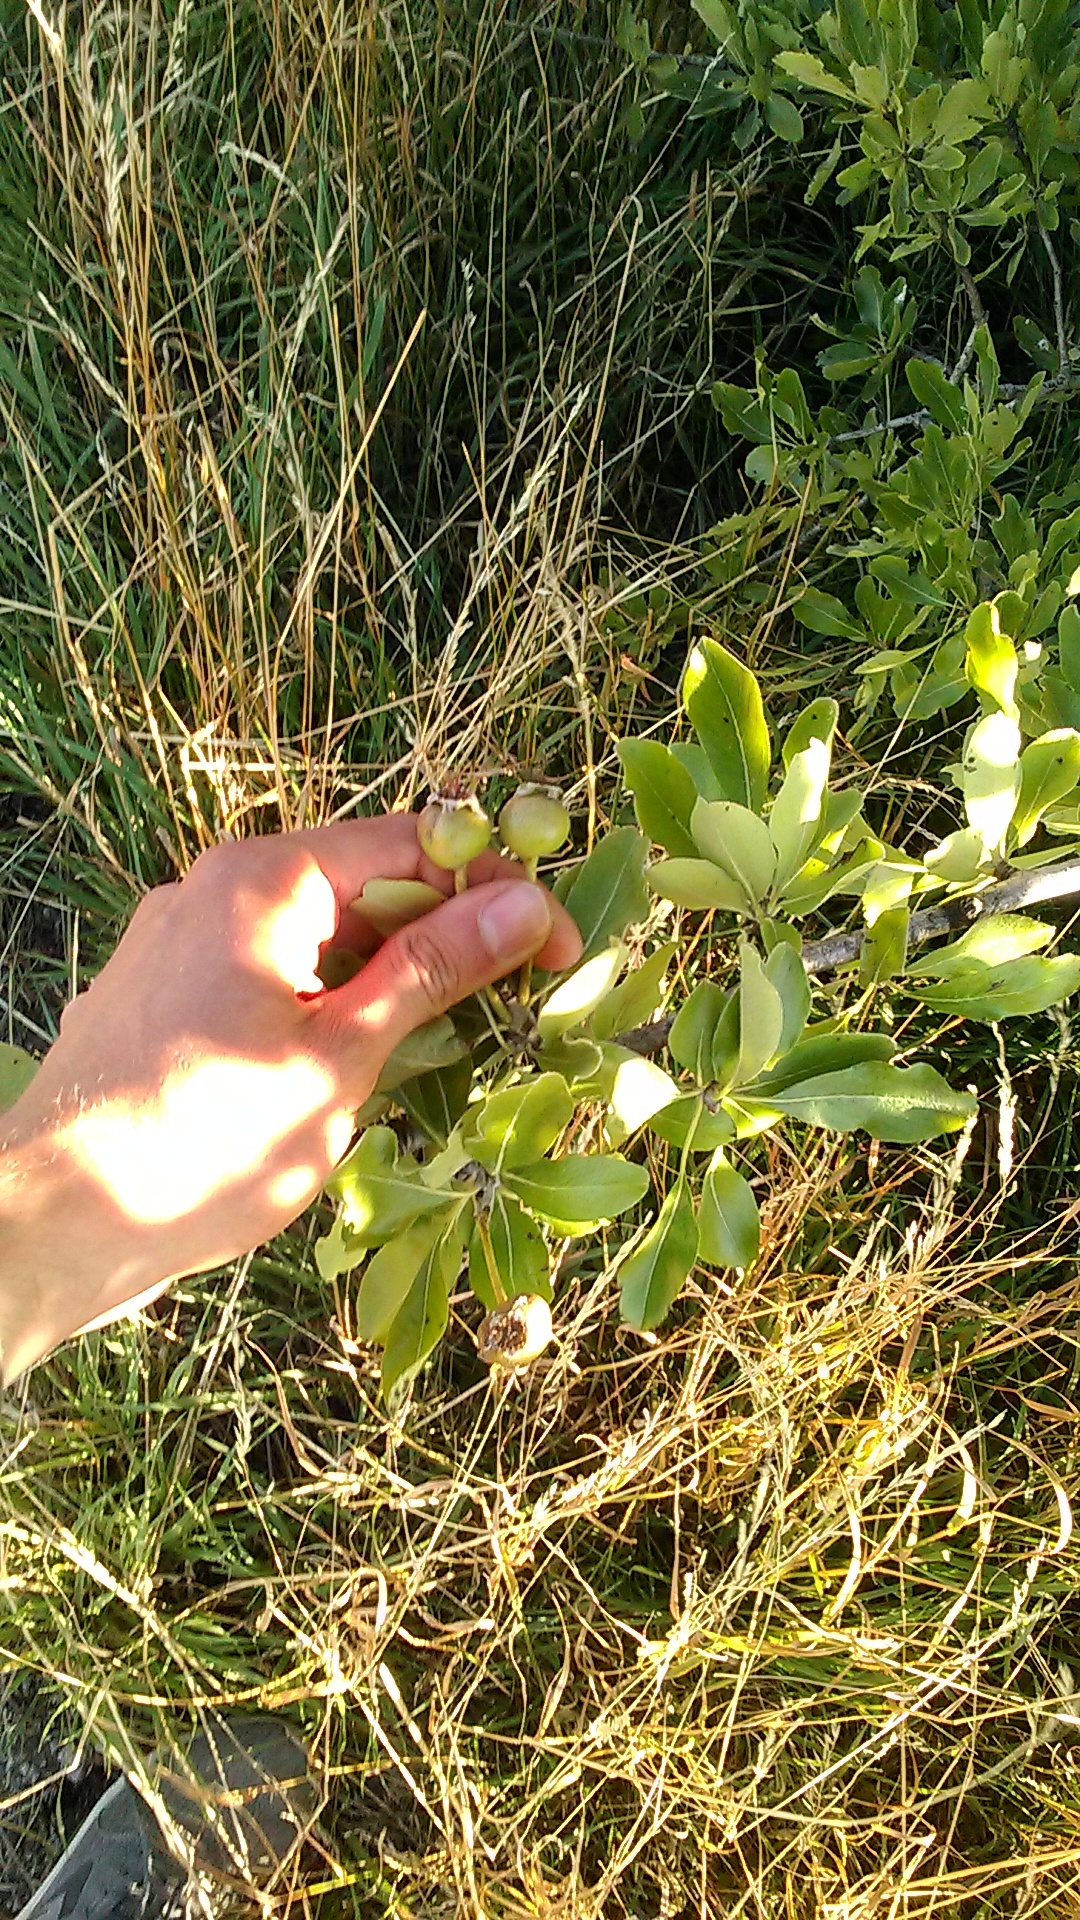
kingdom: Plantae
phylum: Tracheophyta
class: Magnoliopsida
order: Rosales
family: Rosaceae
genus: Pyrus
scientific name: Pyrus nivalis
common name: Snow pear
